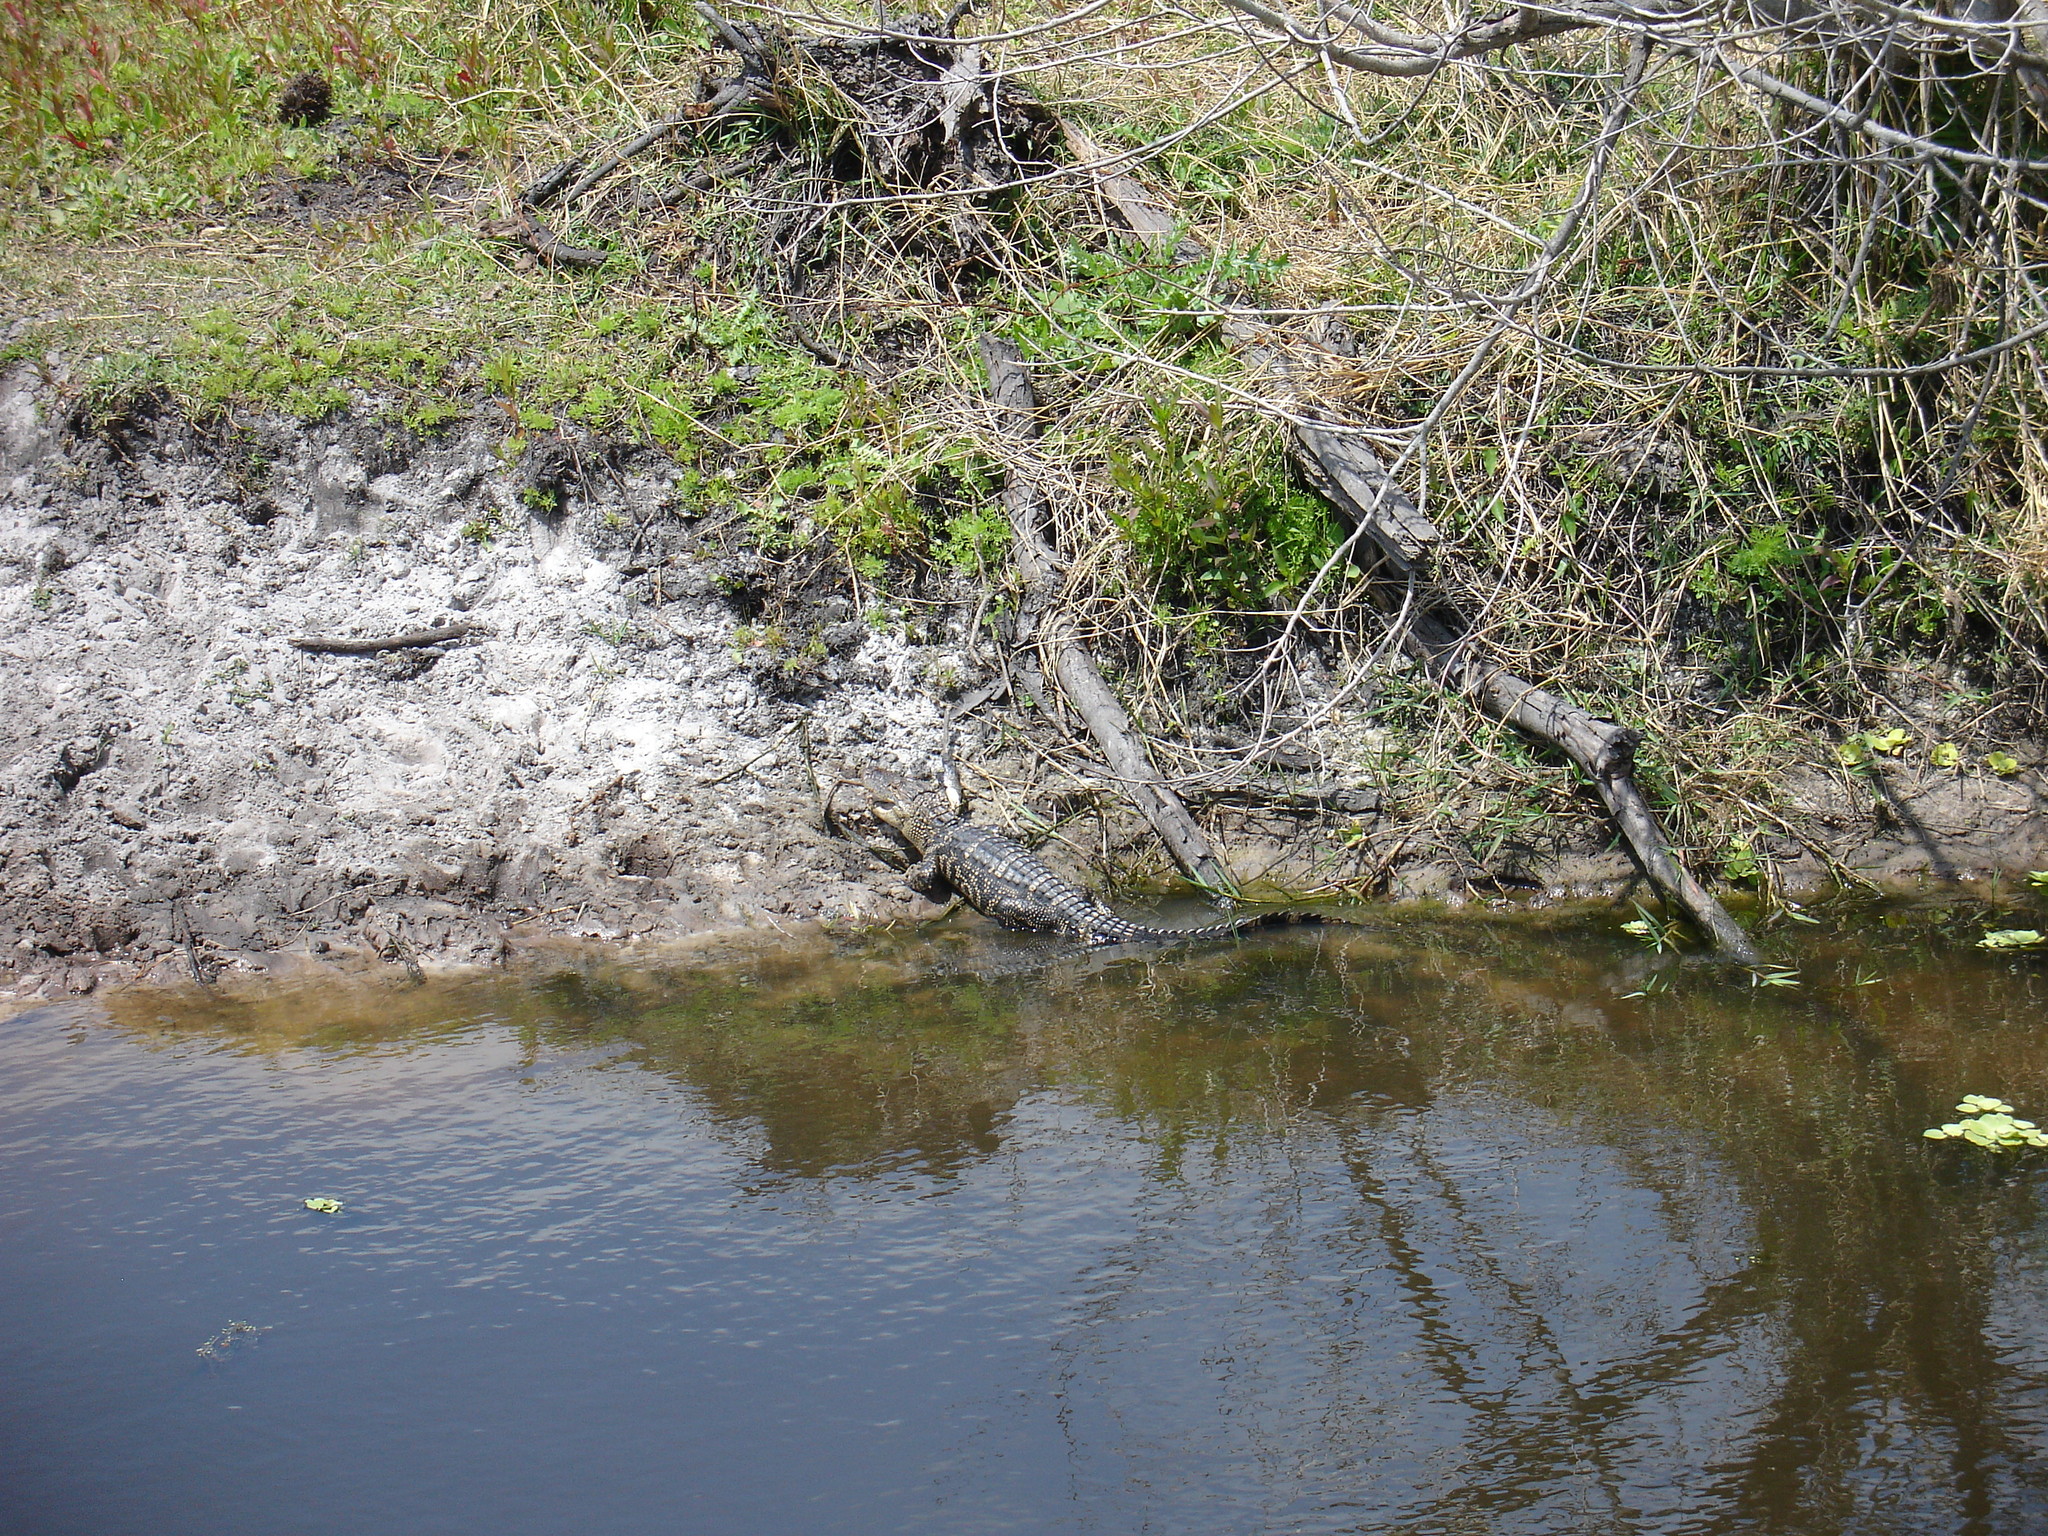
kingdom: Animalia
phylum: Chordata
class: Crocodylia
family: Alligatoridae
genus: Alligator
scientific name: Alligator mississippiensis
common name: American alligator
